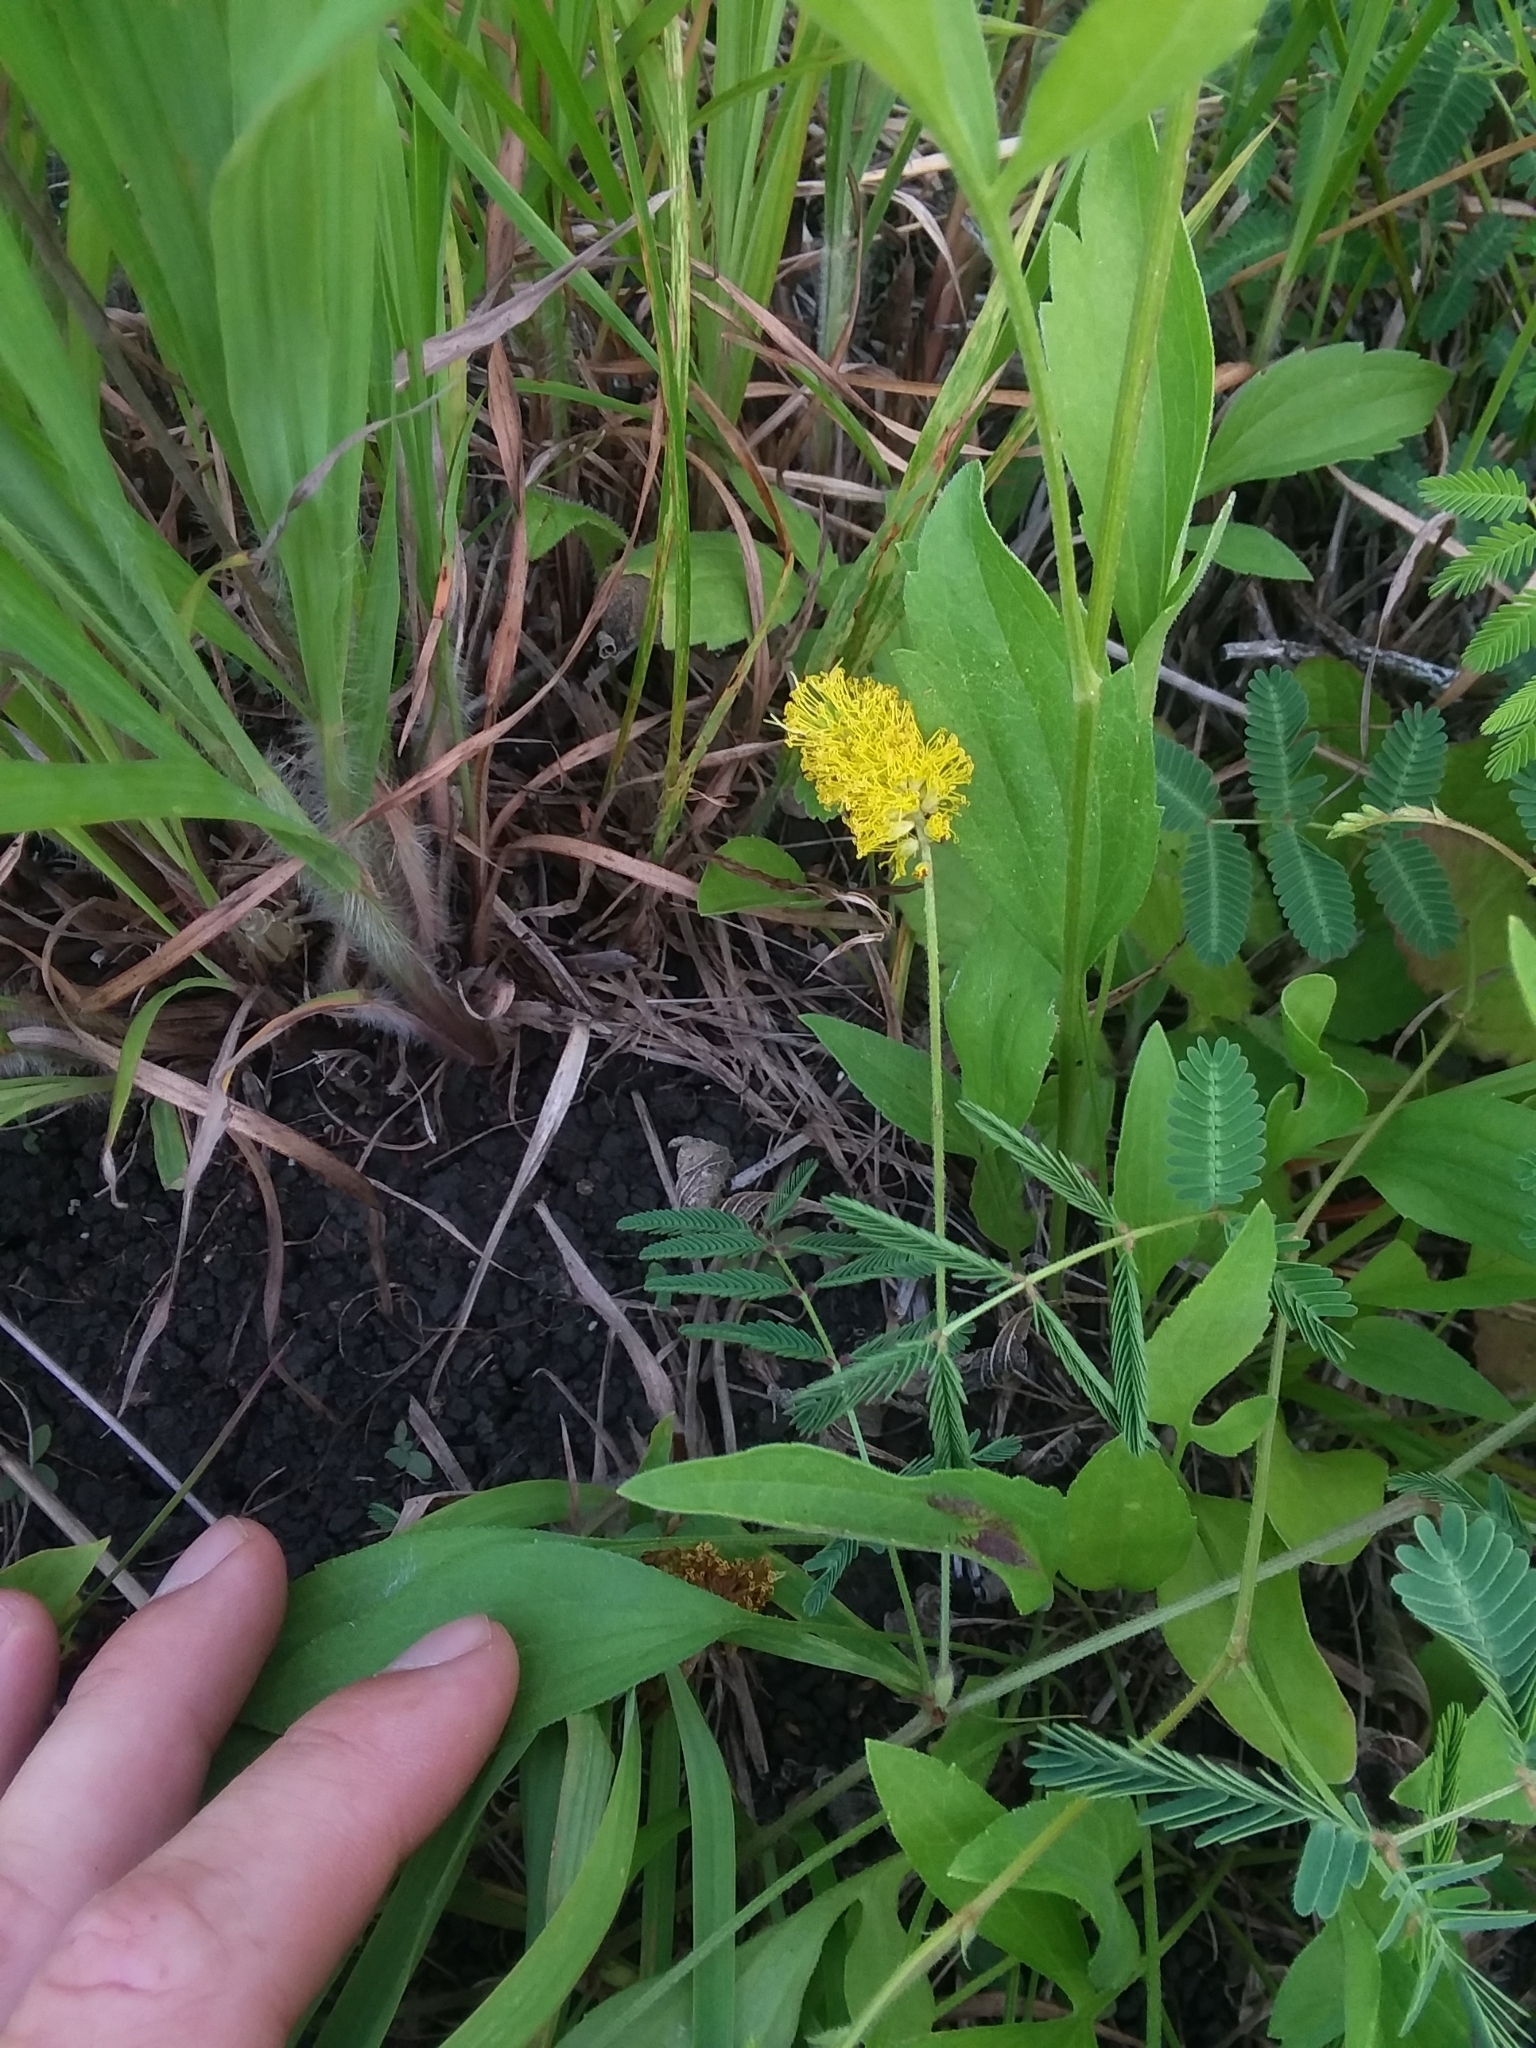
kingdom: Plantae
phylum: Tracheophyta
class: Magnoliopsida
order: Fabales
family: Fabaceae
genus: Neptunia
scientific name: Neptunia lutea
